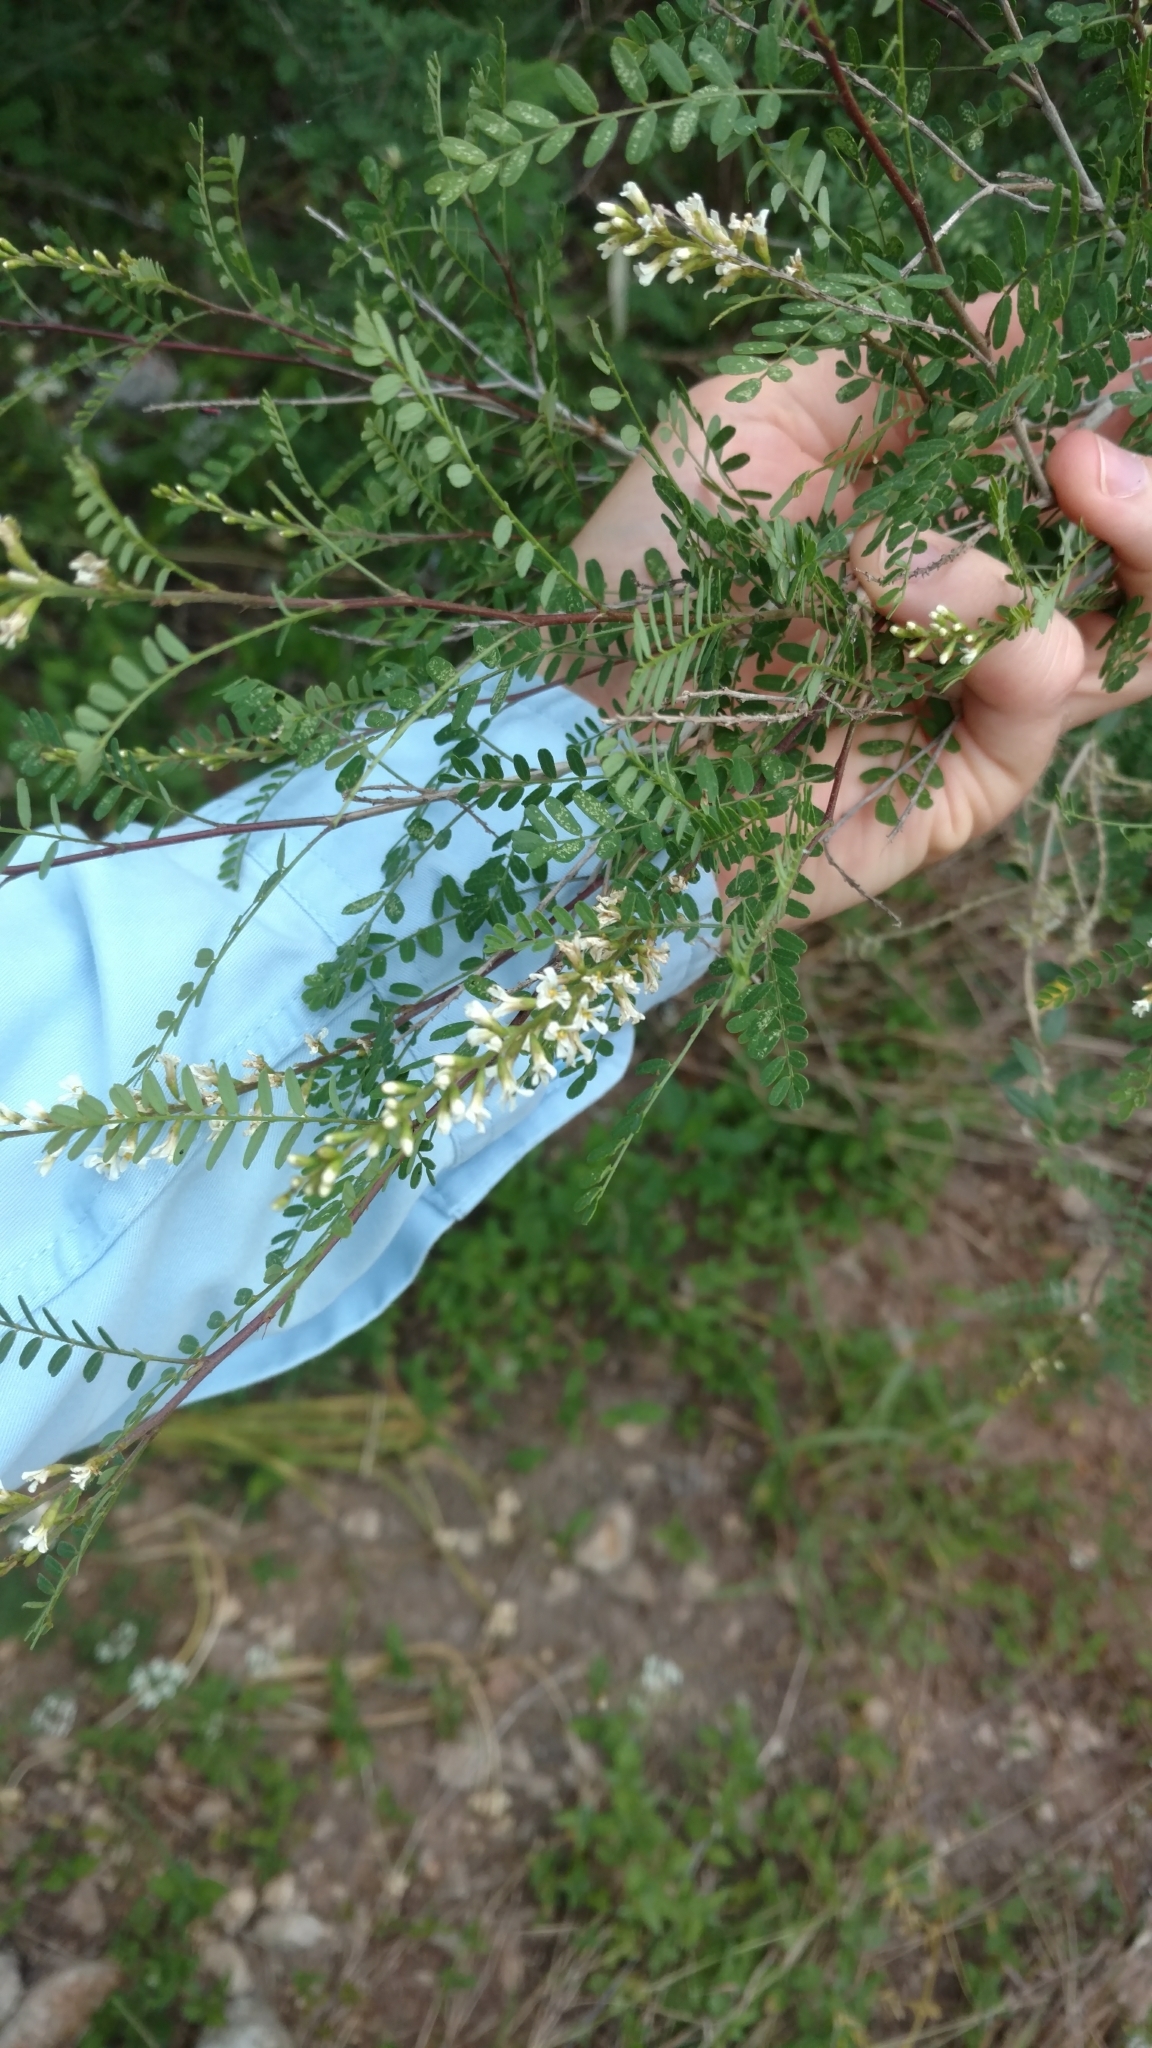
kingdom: Plantae
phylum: Tracheophyta
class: Magnoliopsida
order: Fabales
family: Fabaceae
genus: Eysenhardtia
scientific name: Eysenhardtia texana
